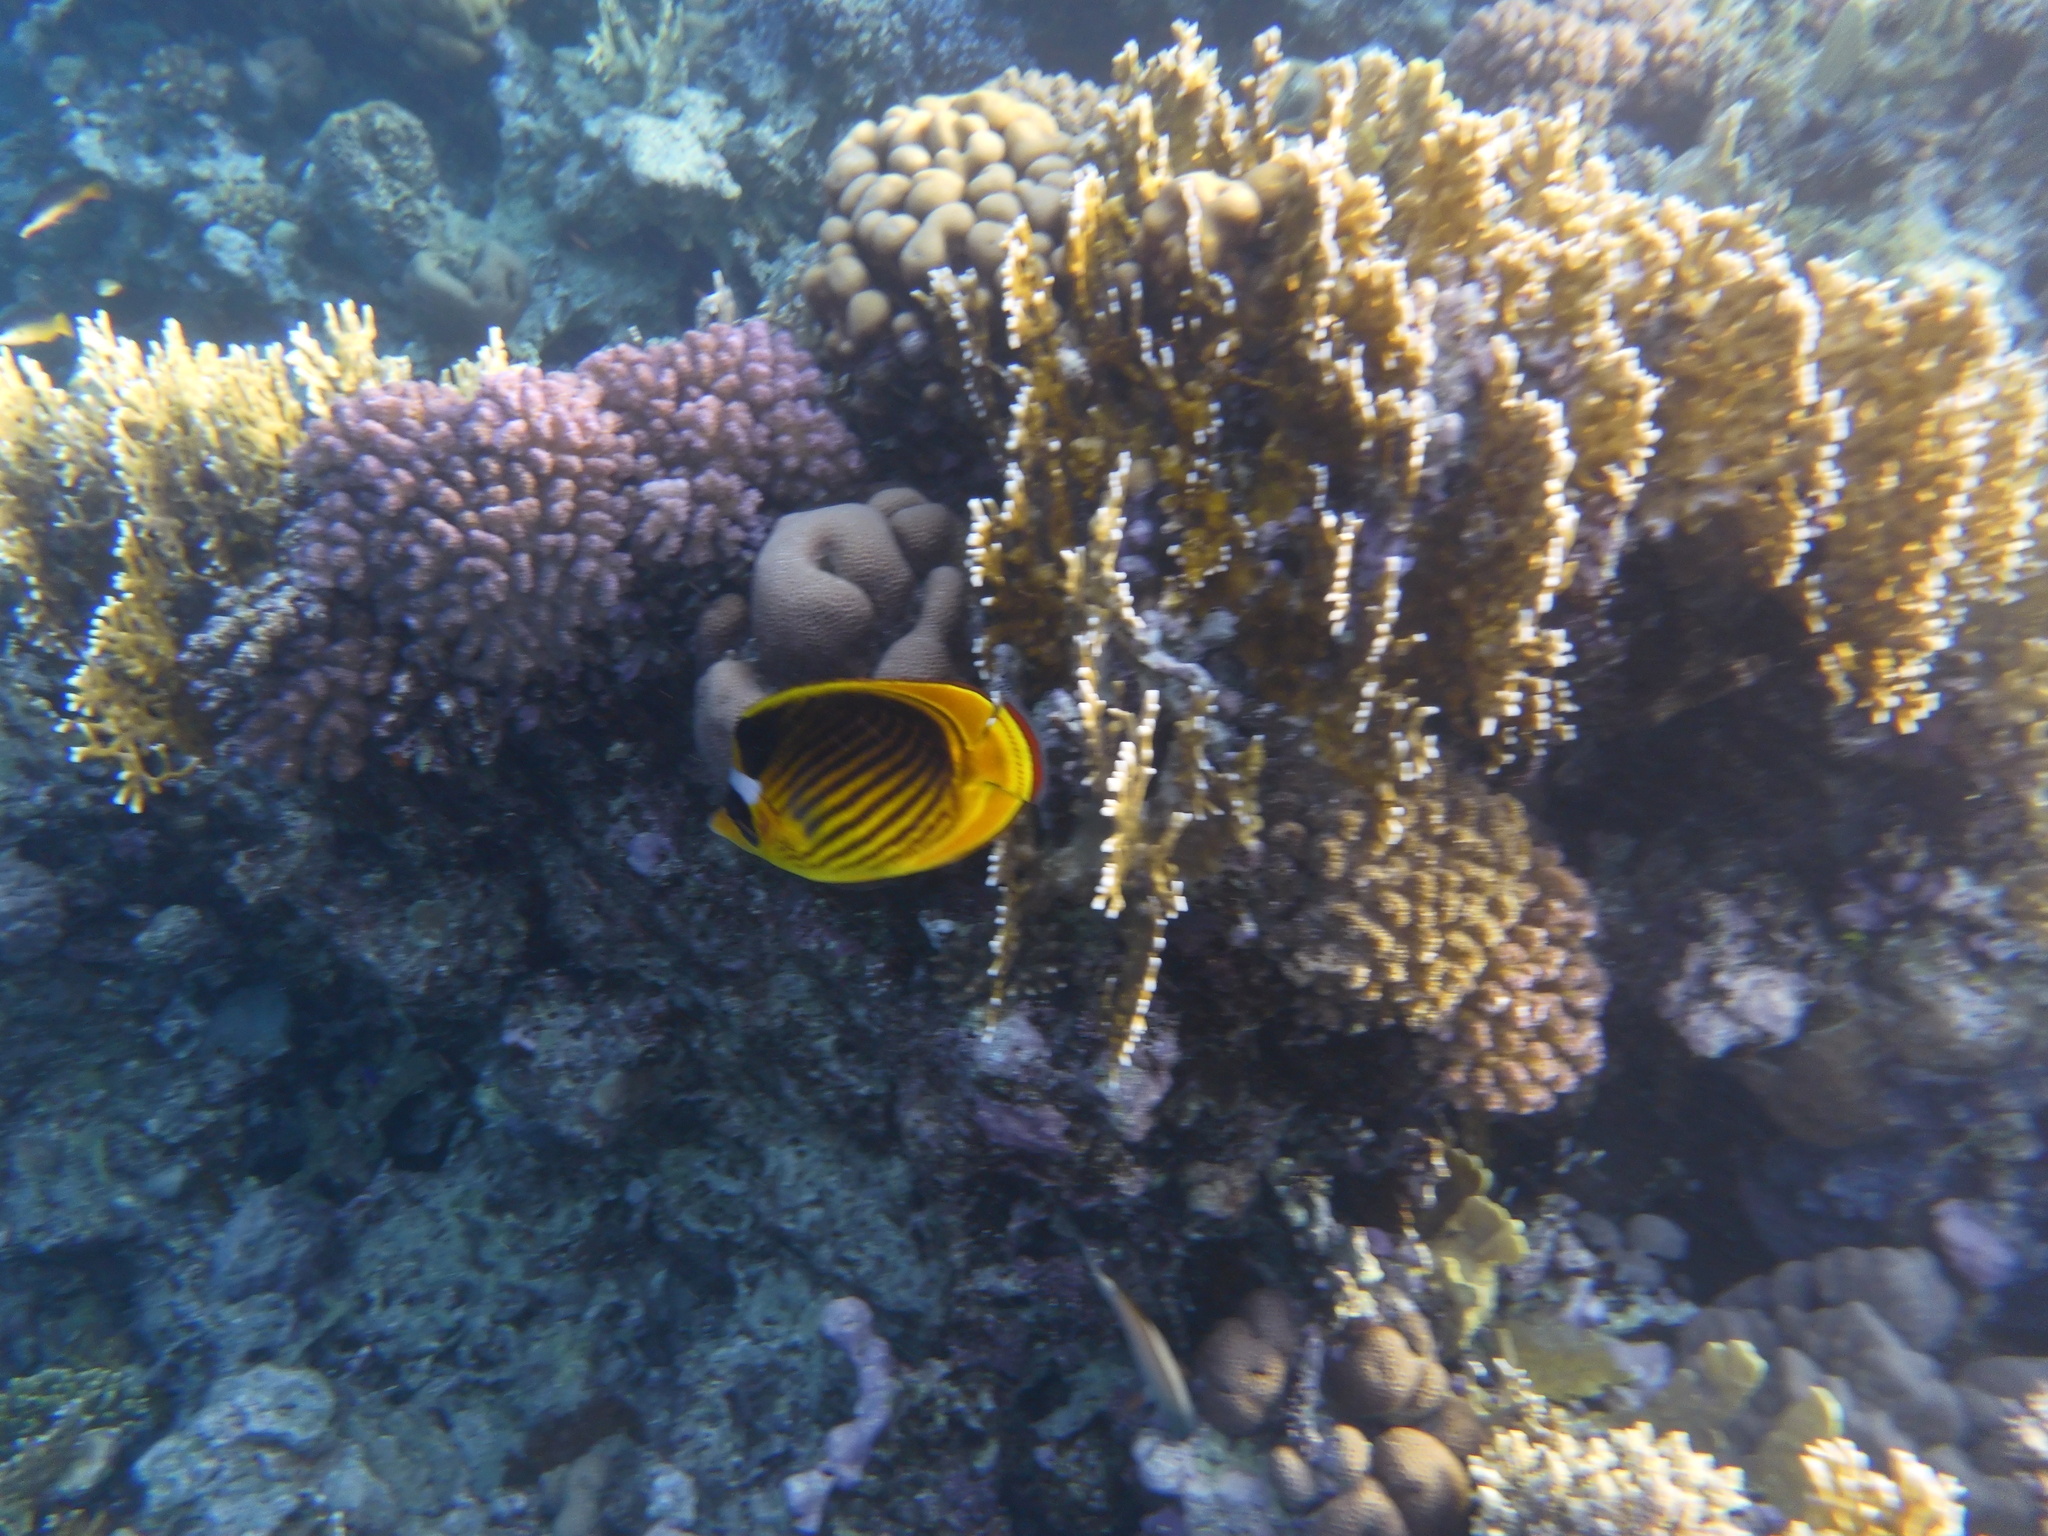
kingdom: Animalia
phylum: Chordata
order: Perciformes
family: Chaetodontidae
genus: Chaetodon
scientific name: Chaetodon fasciatus
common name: Diagonal butterflyfish
